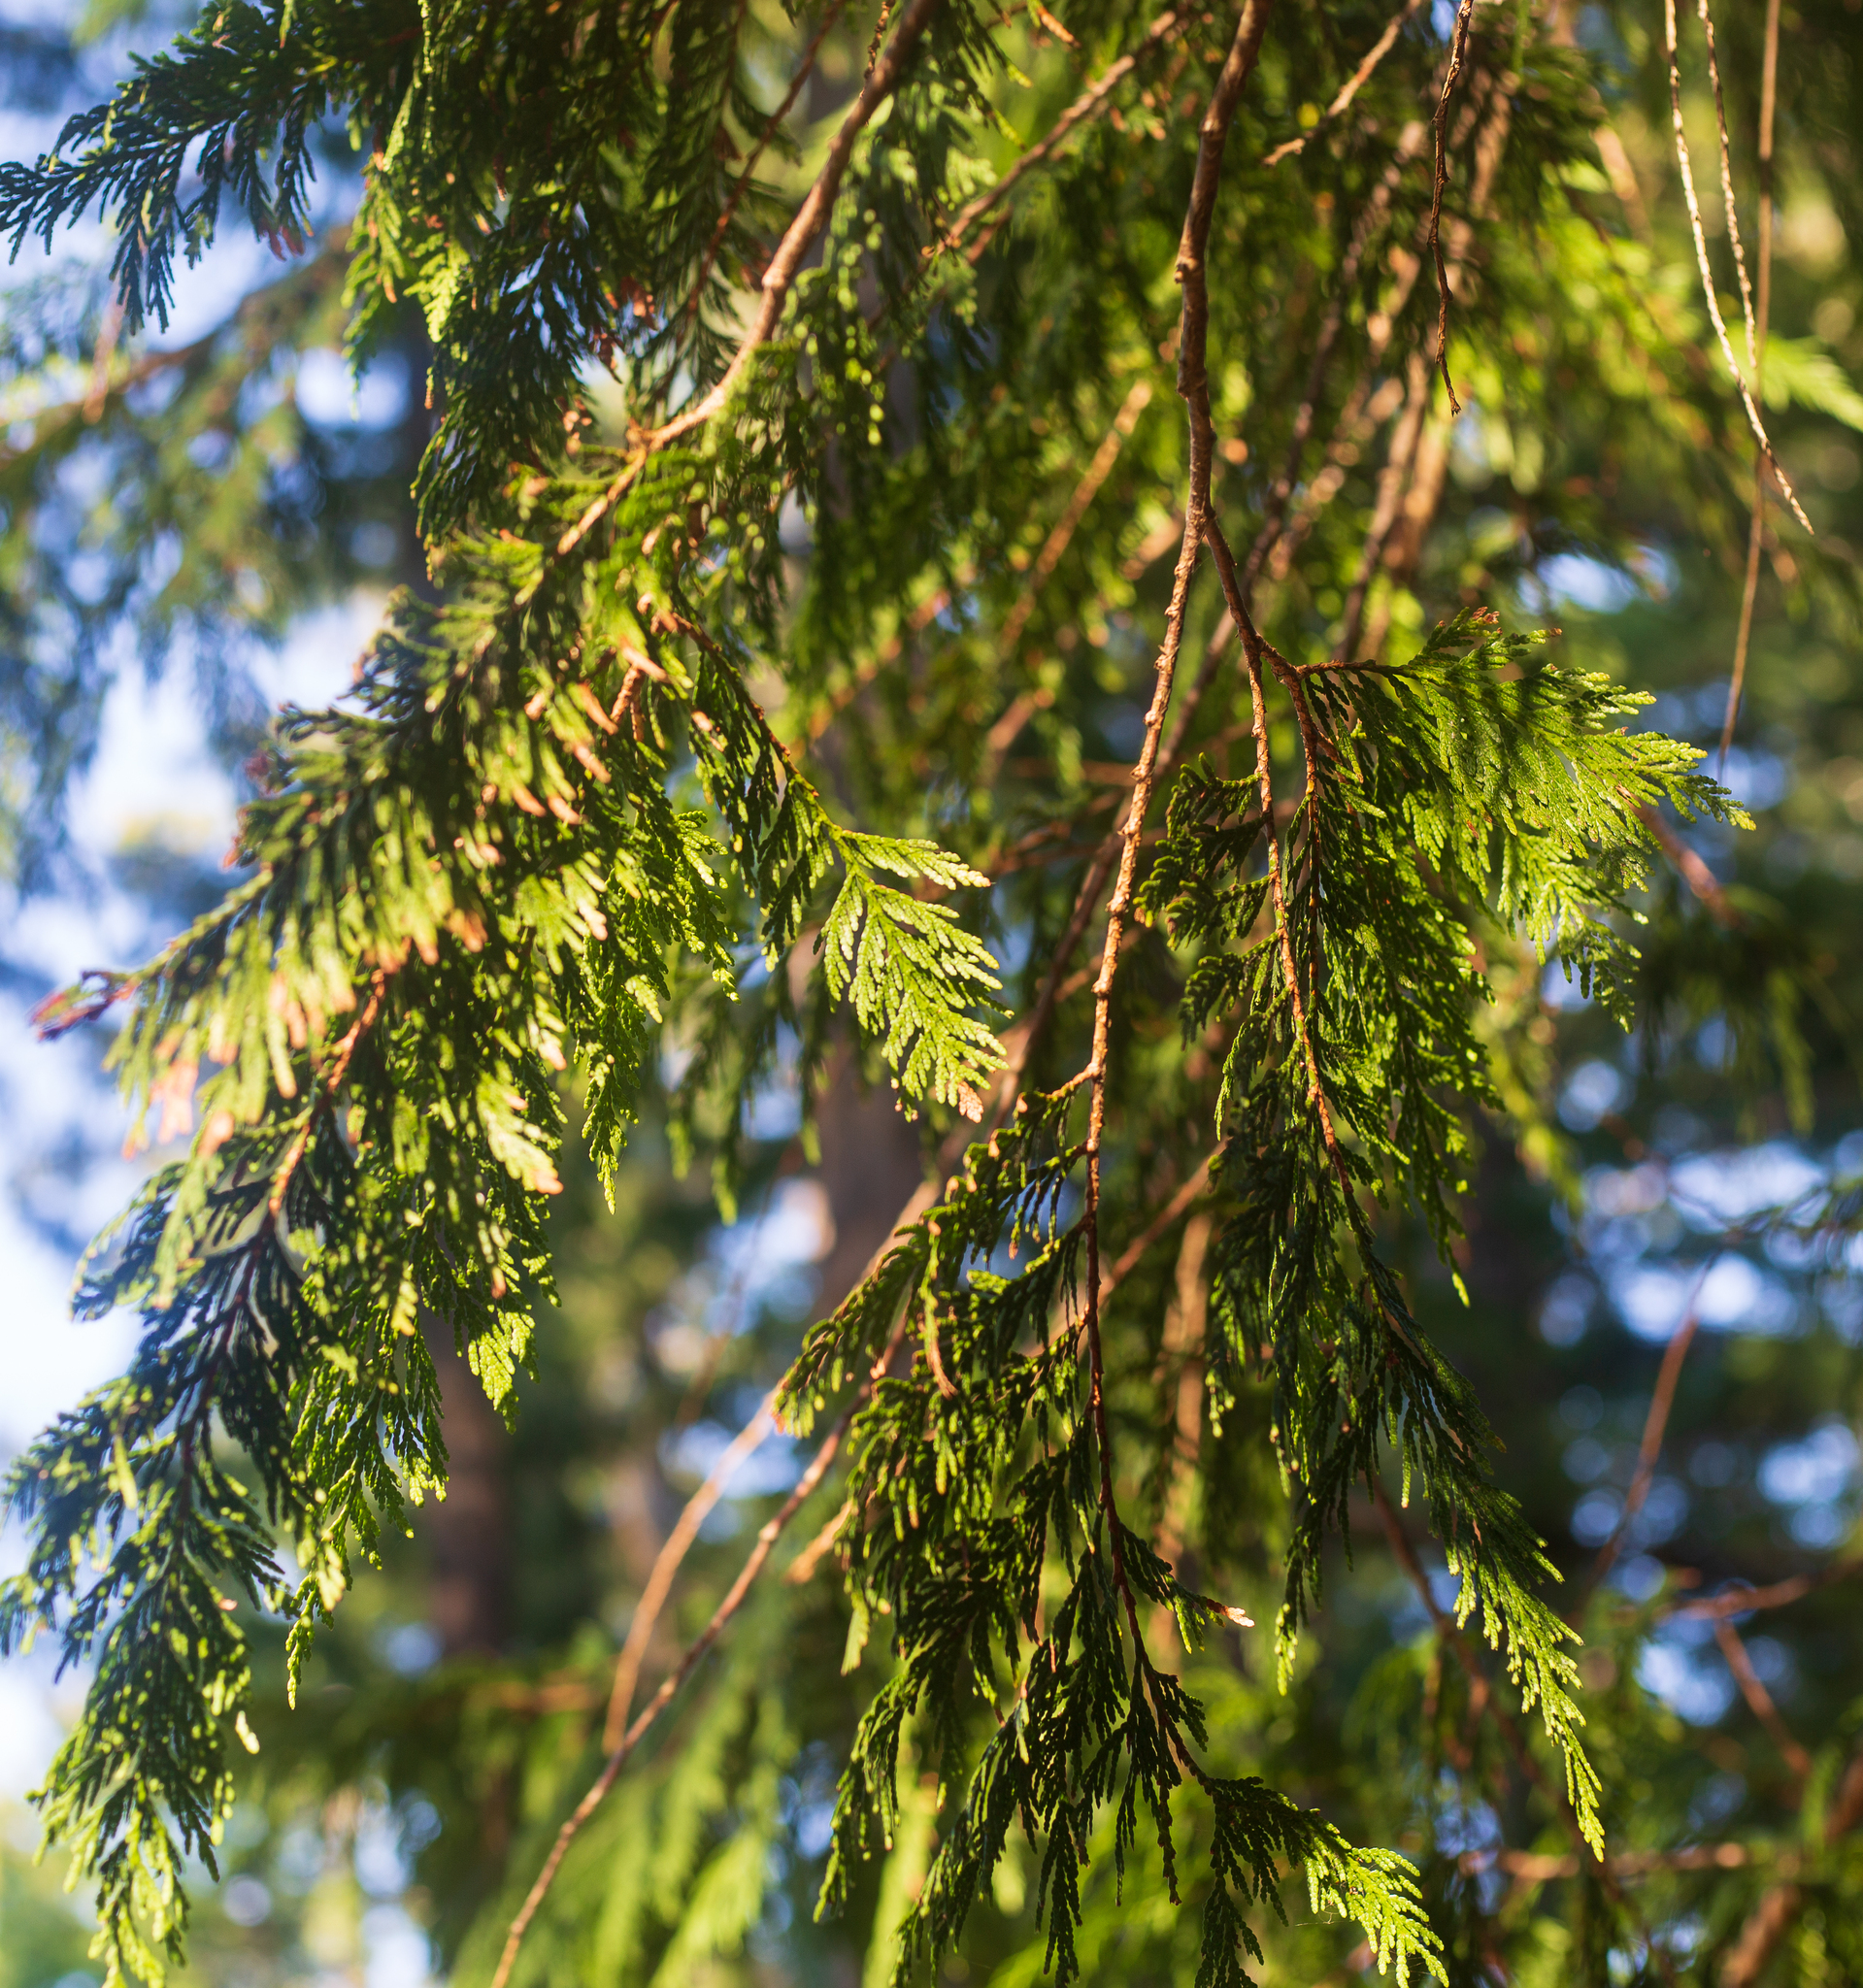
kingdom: Plantae
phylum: Tracheophyta
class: Pinopsida
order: Pinales
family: Cupressaceae
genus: Thuja
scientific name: Thuja plicata
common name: Western red-cedar
